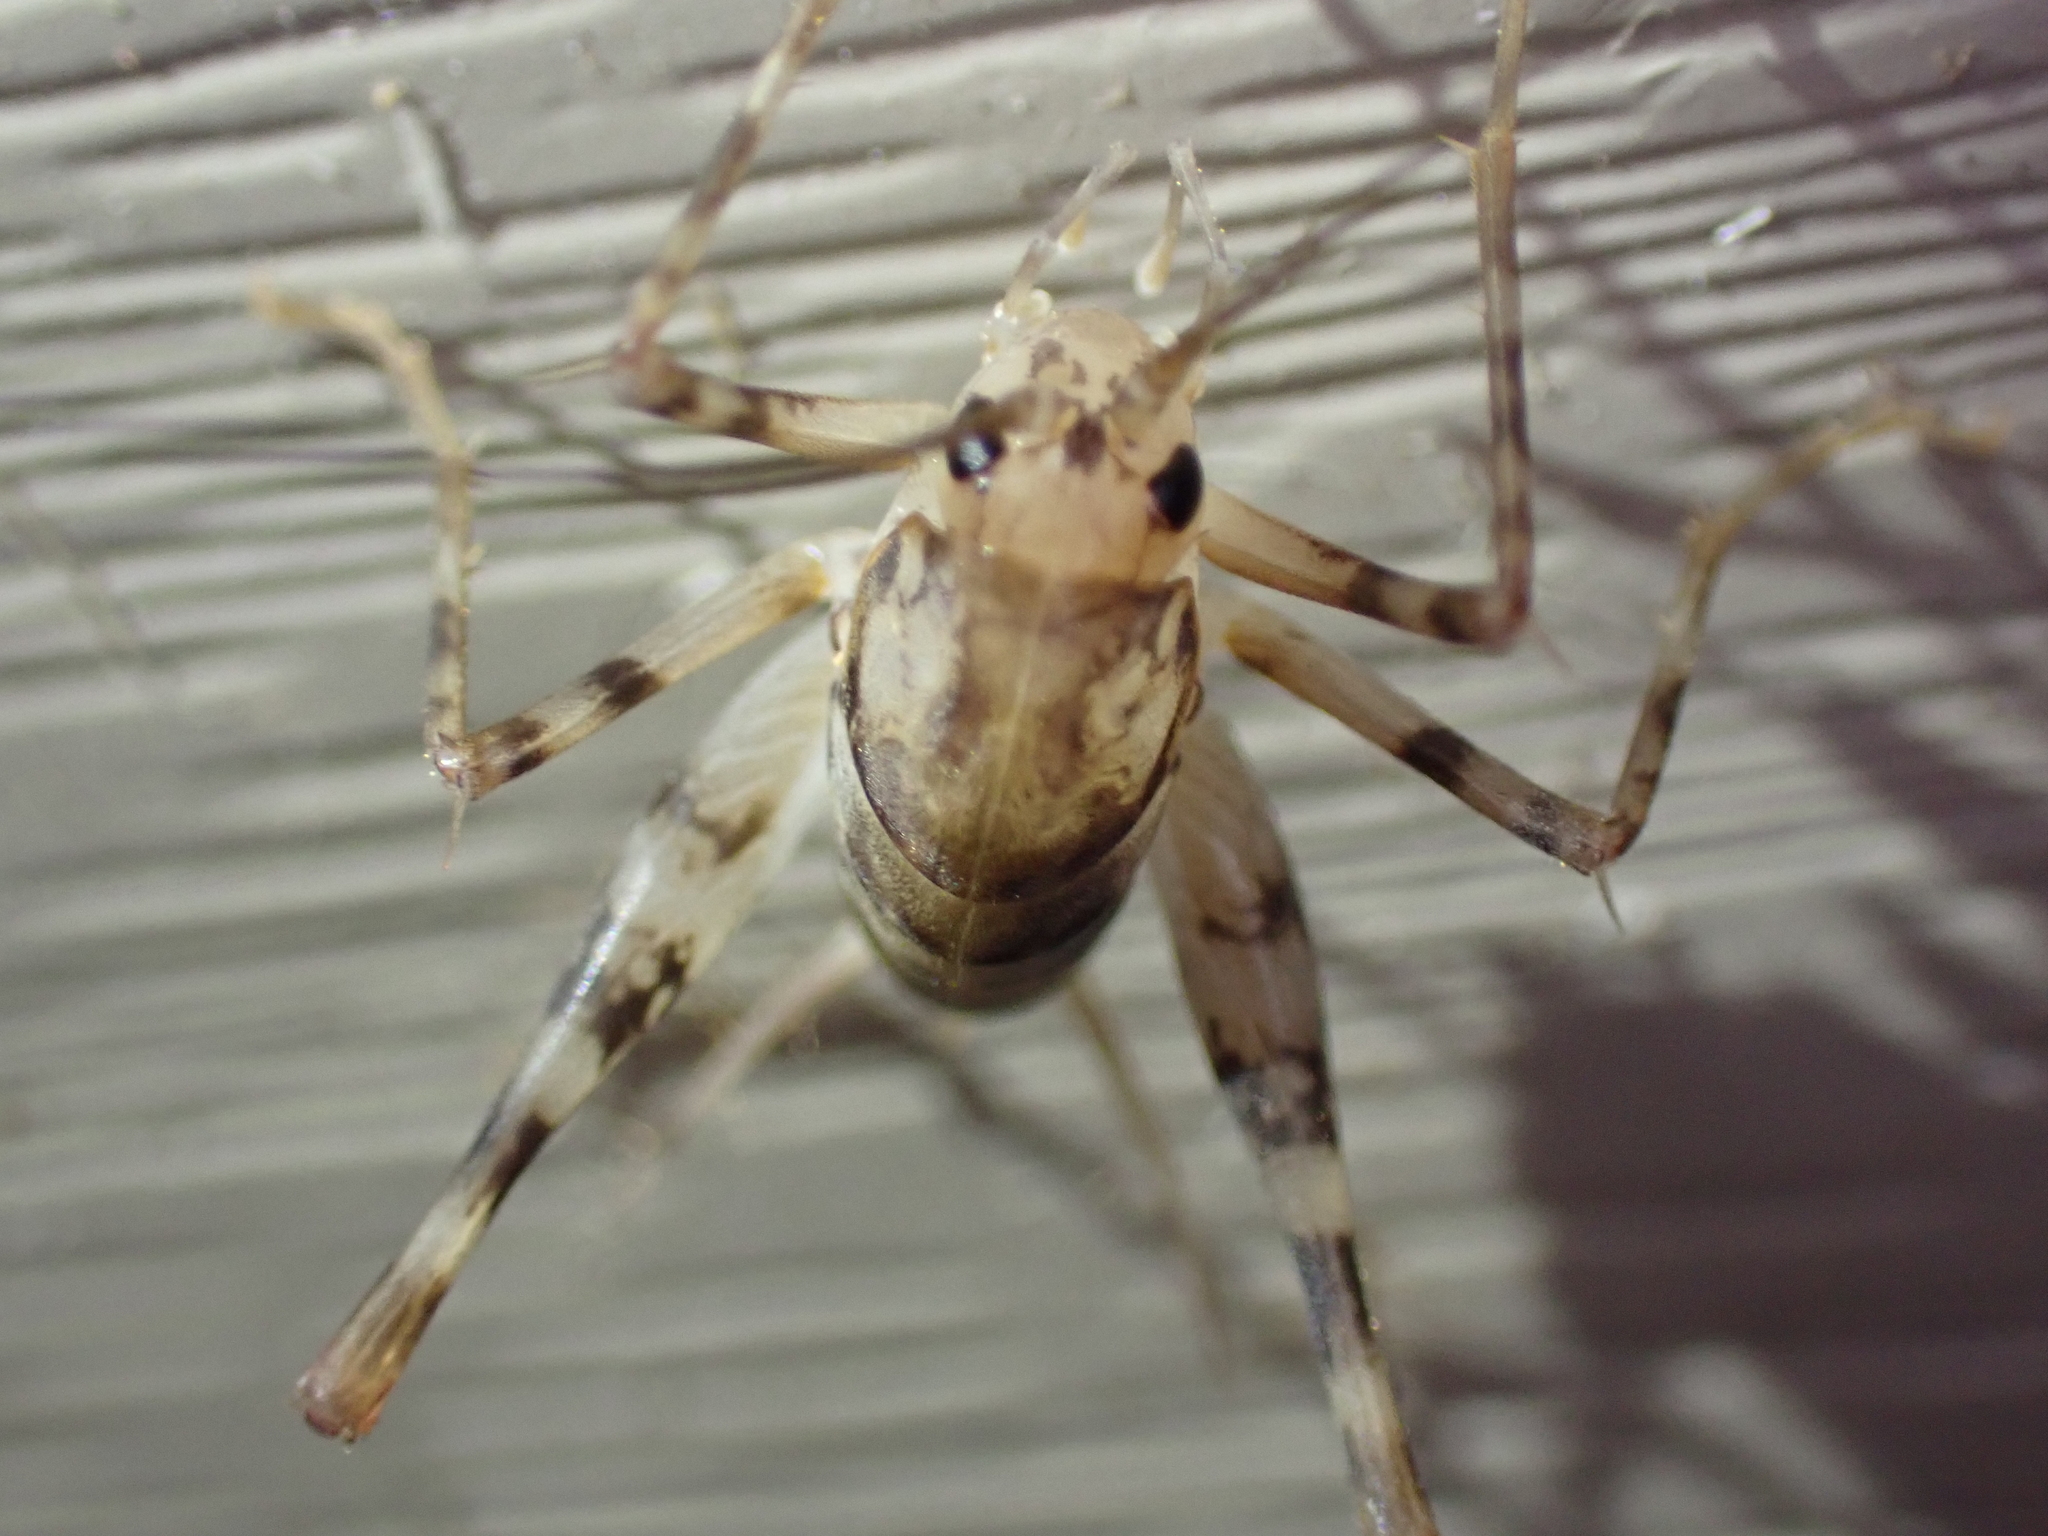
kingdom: Animalia
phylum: Arthropoda
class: Insecta
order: Orthoptera
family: Rhaphidophoridae
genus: Tachycines
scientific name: Tachycines asynamorus
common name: Greenhouse camel cricket
